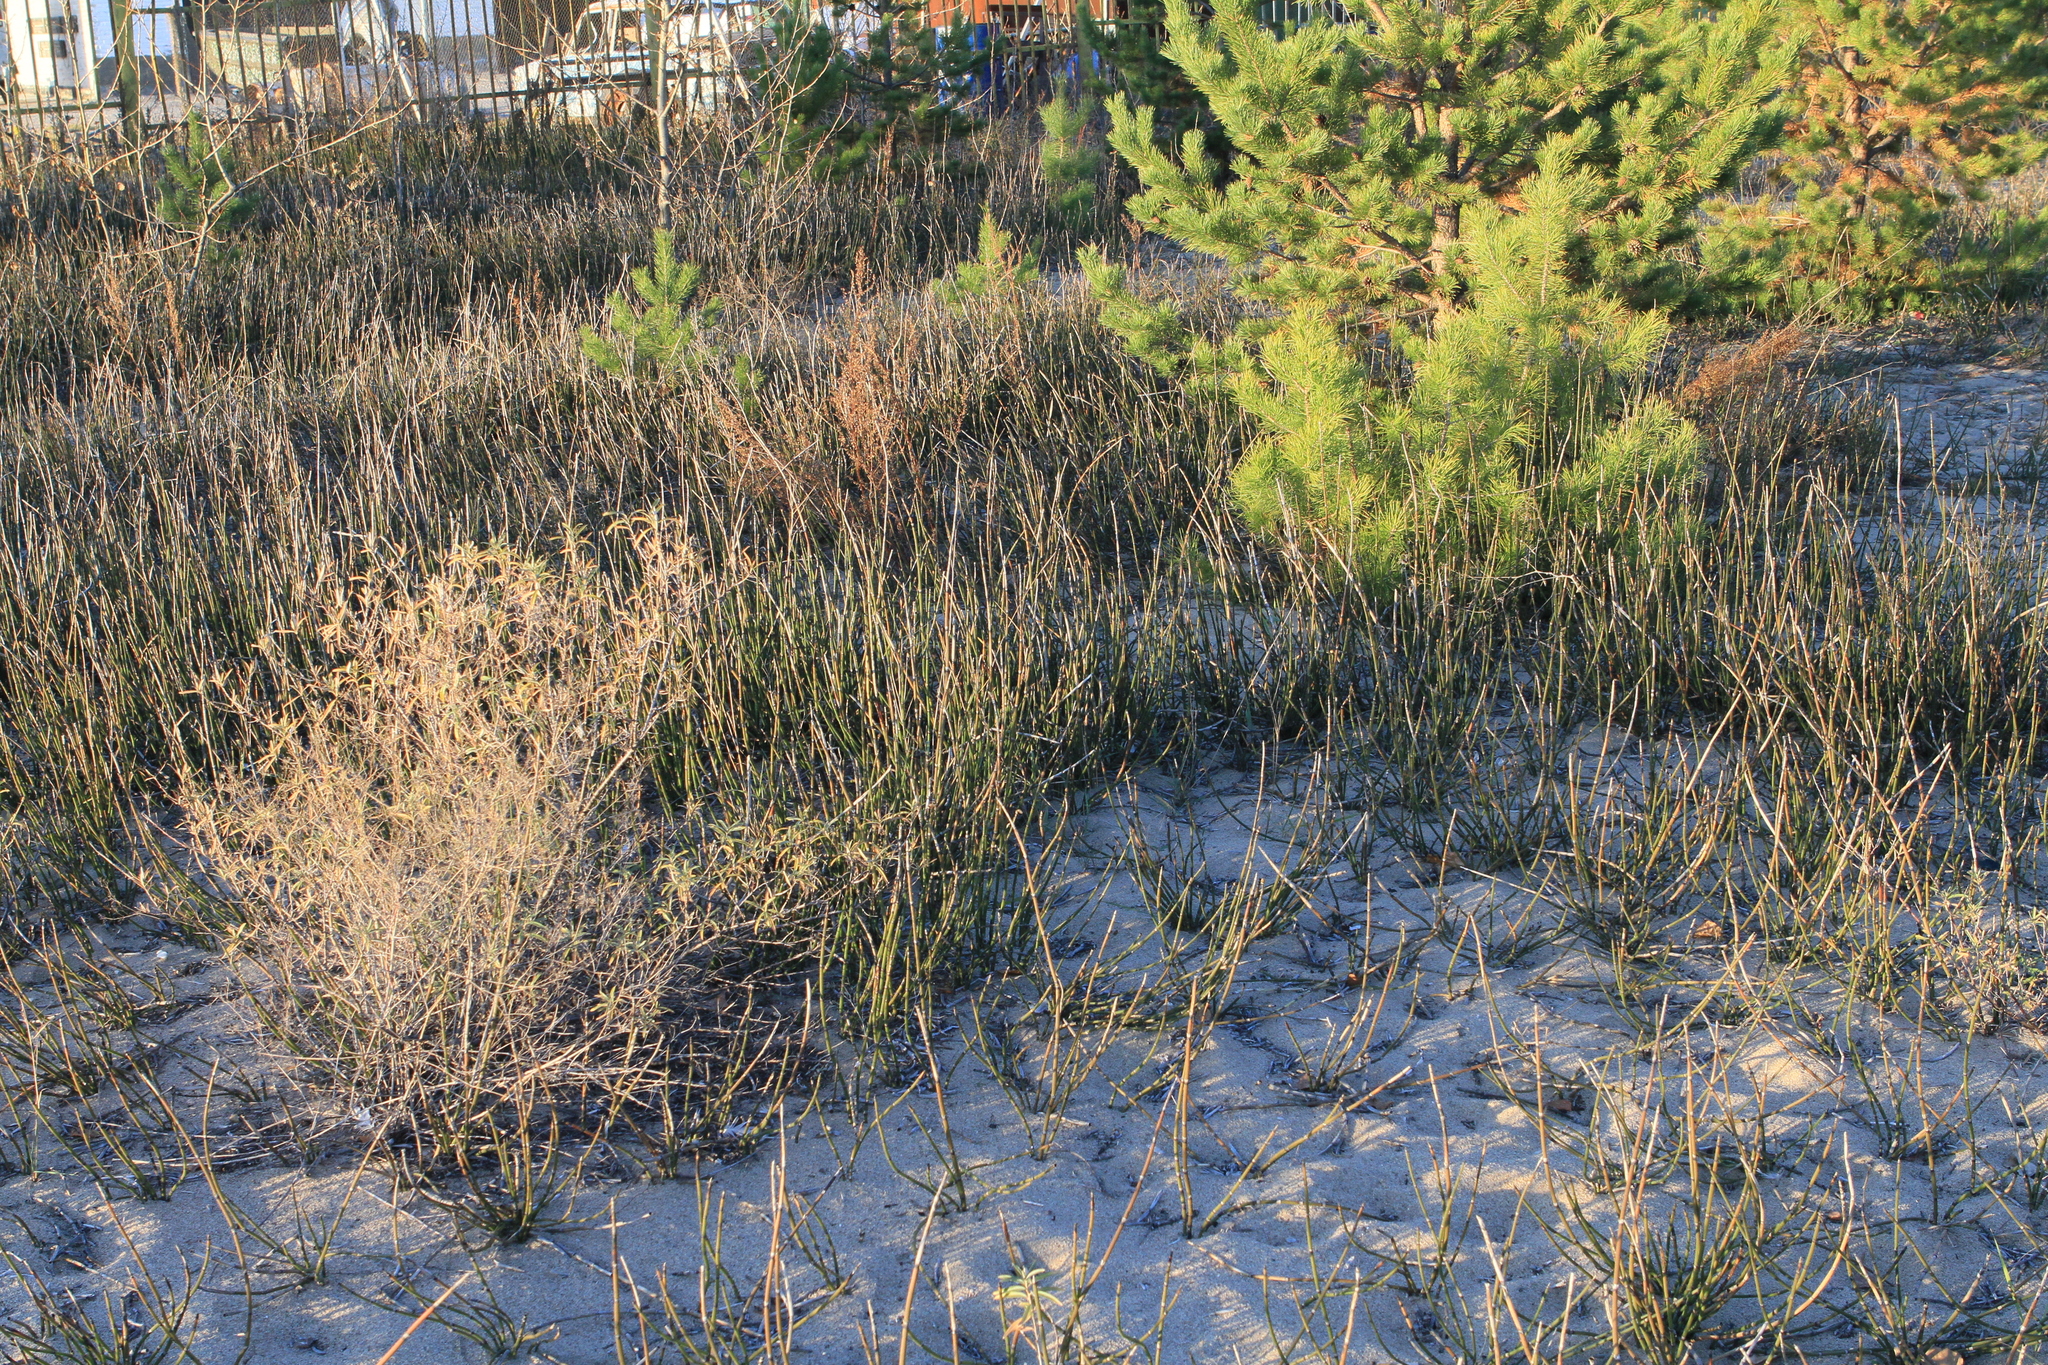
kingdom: Plantae
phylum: Tracheophyta
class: Polypodiopsida
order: Equisetales
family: Equisetaceae
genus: Equisetum
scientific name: Equisetum hyemale
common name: Rough horsetail
